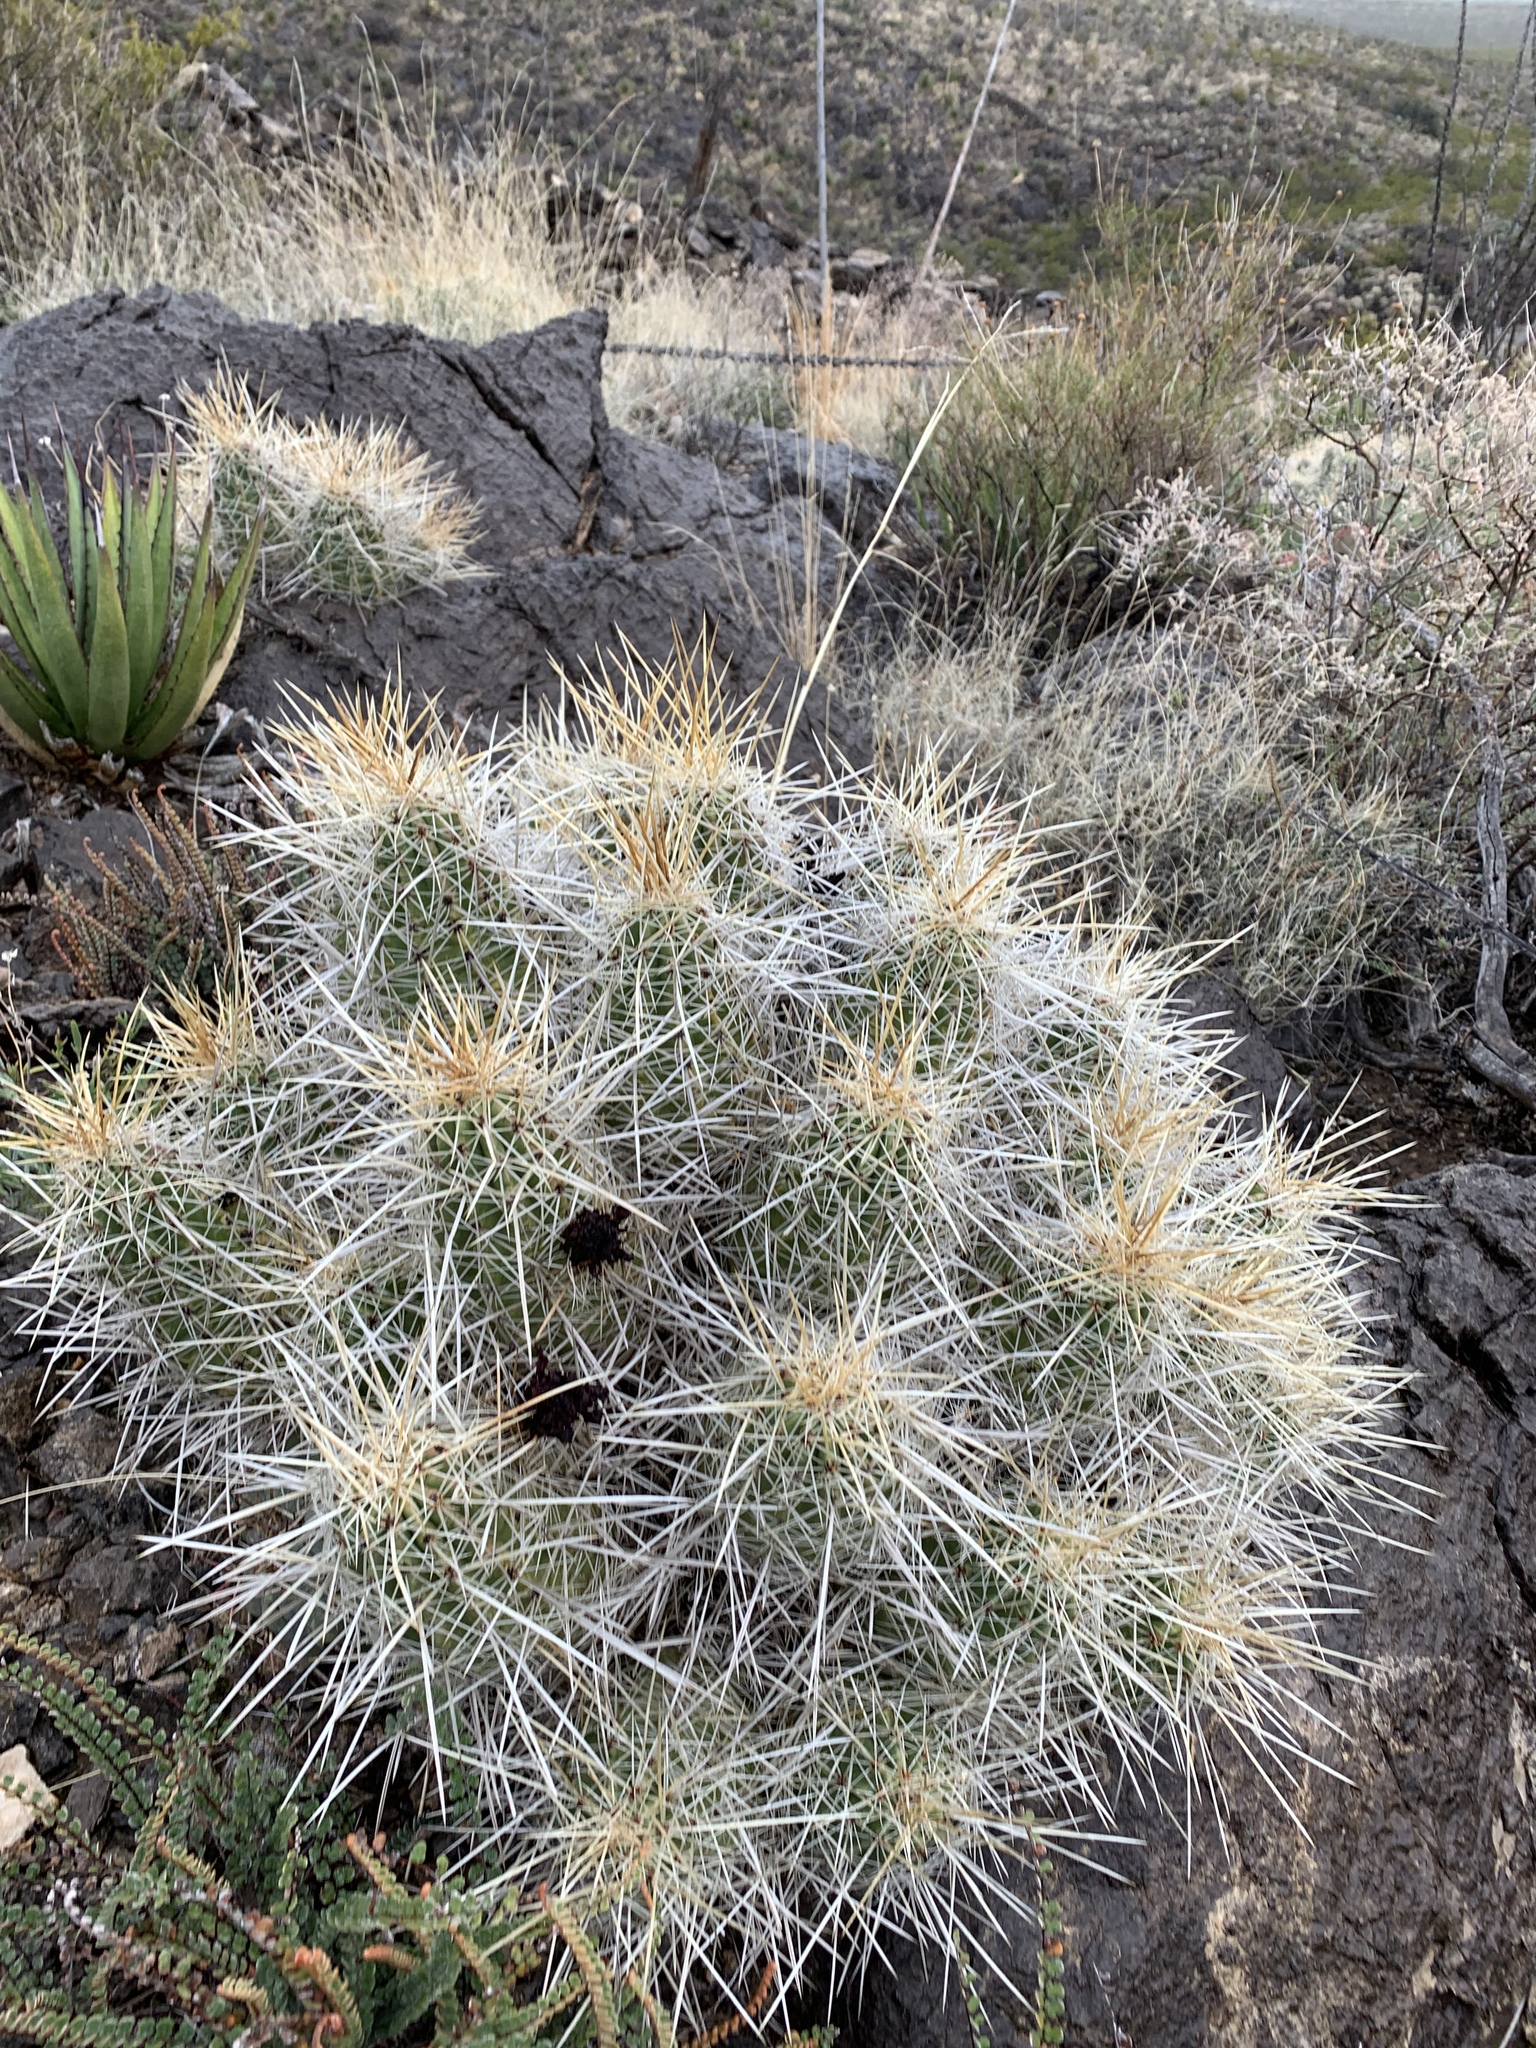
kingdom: Plantae
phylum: Tracheophyta
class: Magnoliopsida
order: Caryophyllales
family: Cactaceae
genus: Echinocereus
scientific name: Echinocereus stramineus
